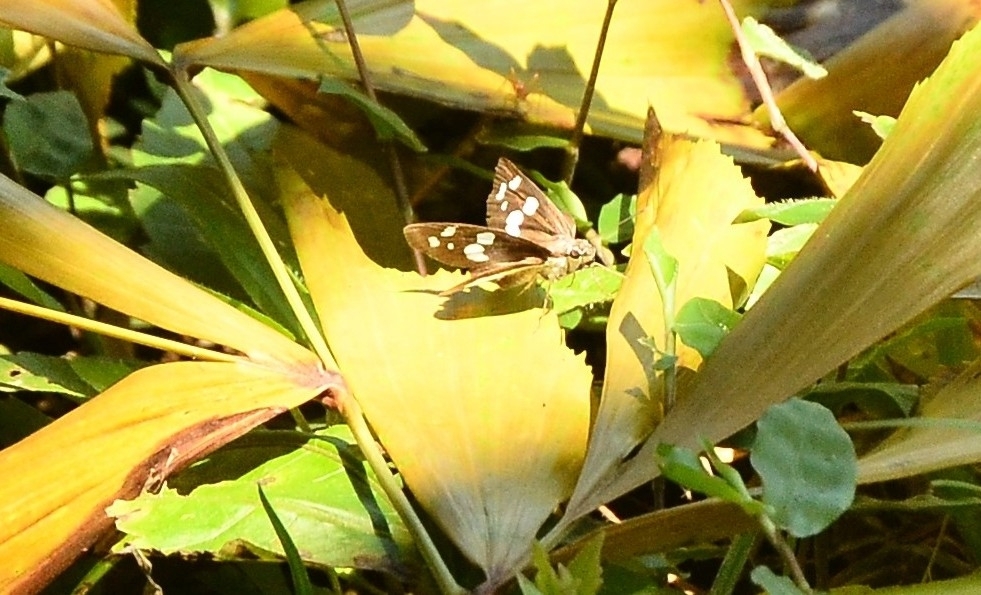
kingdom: Animalia
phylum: Arthropoda
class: Insecta
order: Lepidoptera
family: Hesperiidae
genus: Udaspes
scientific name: Udaspes folus
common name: Grass demon
